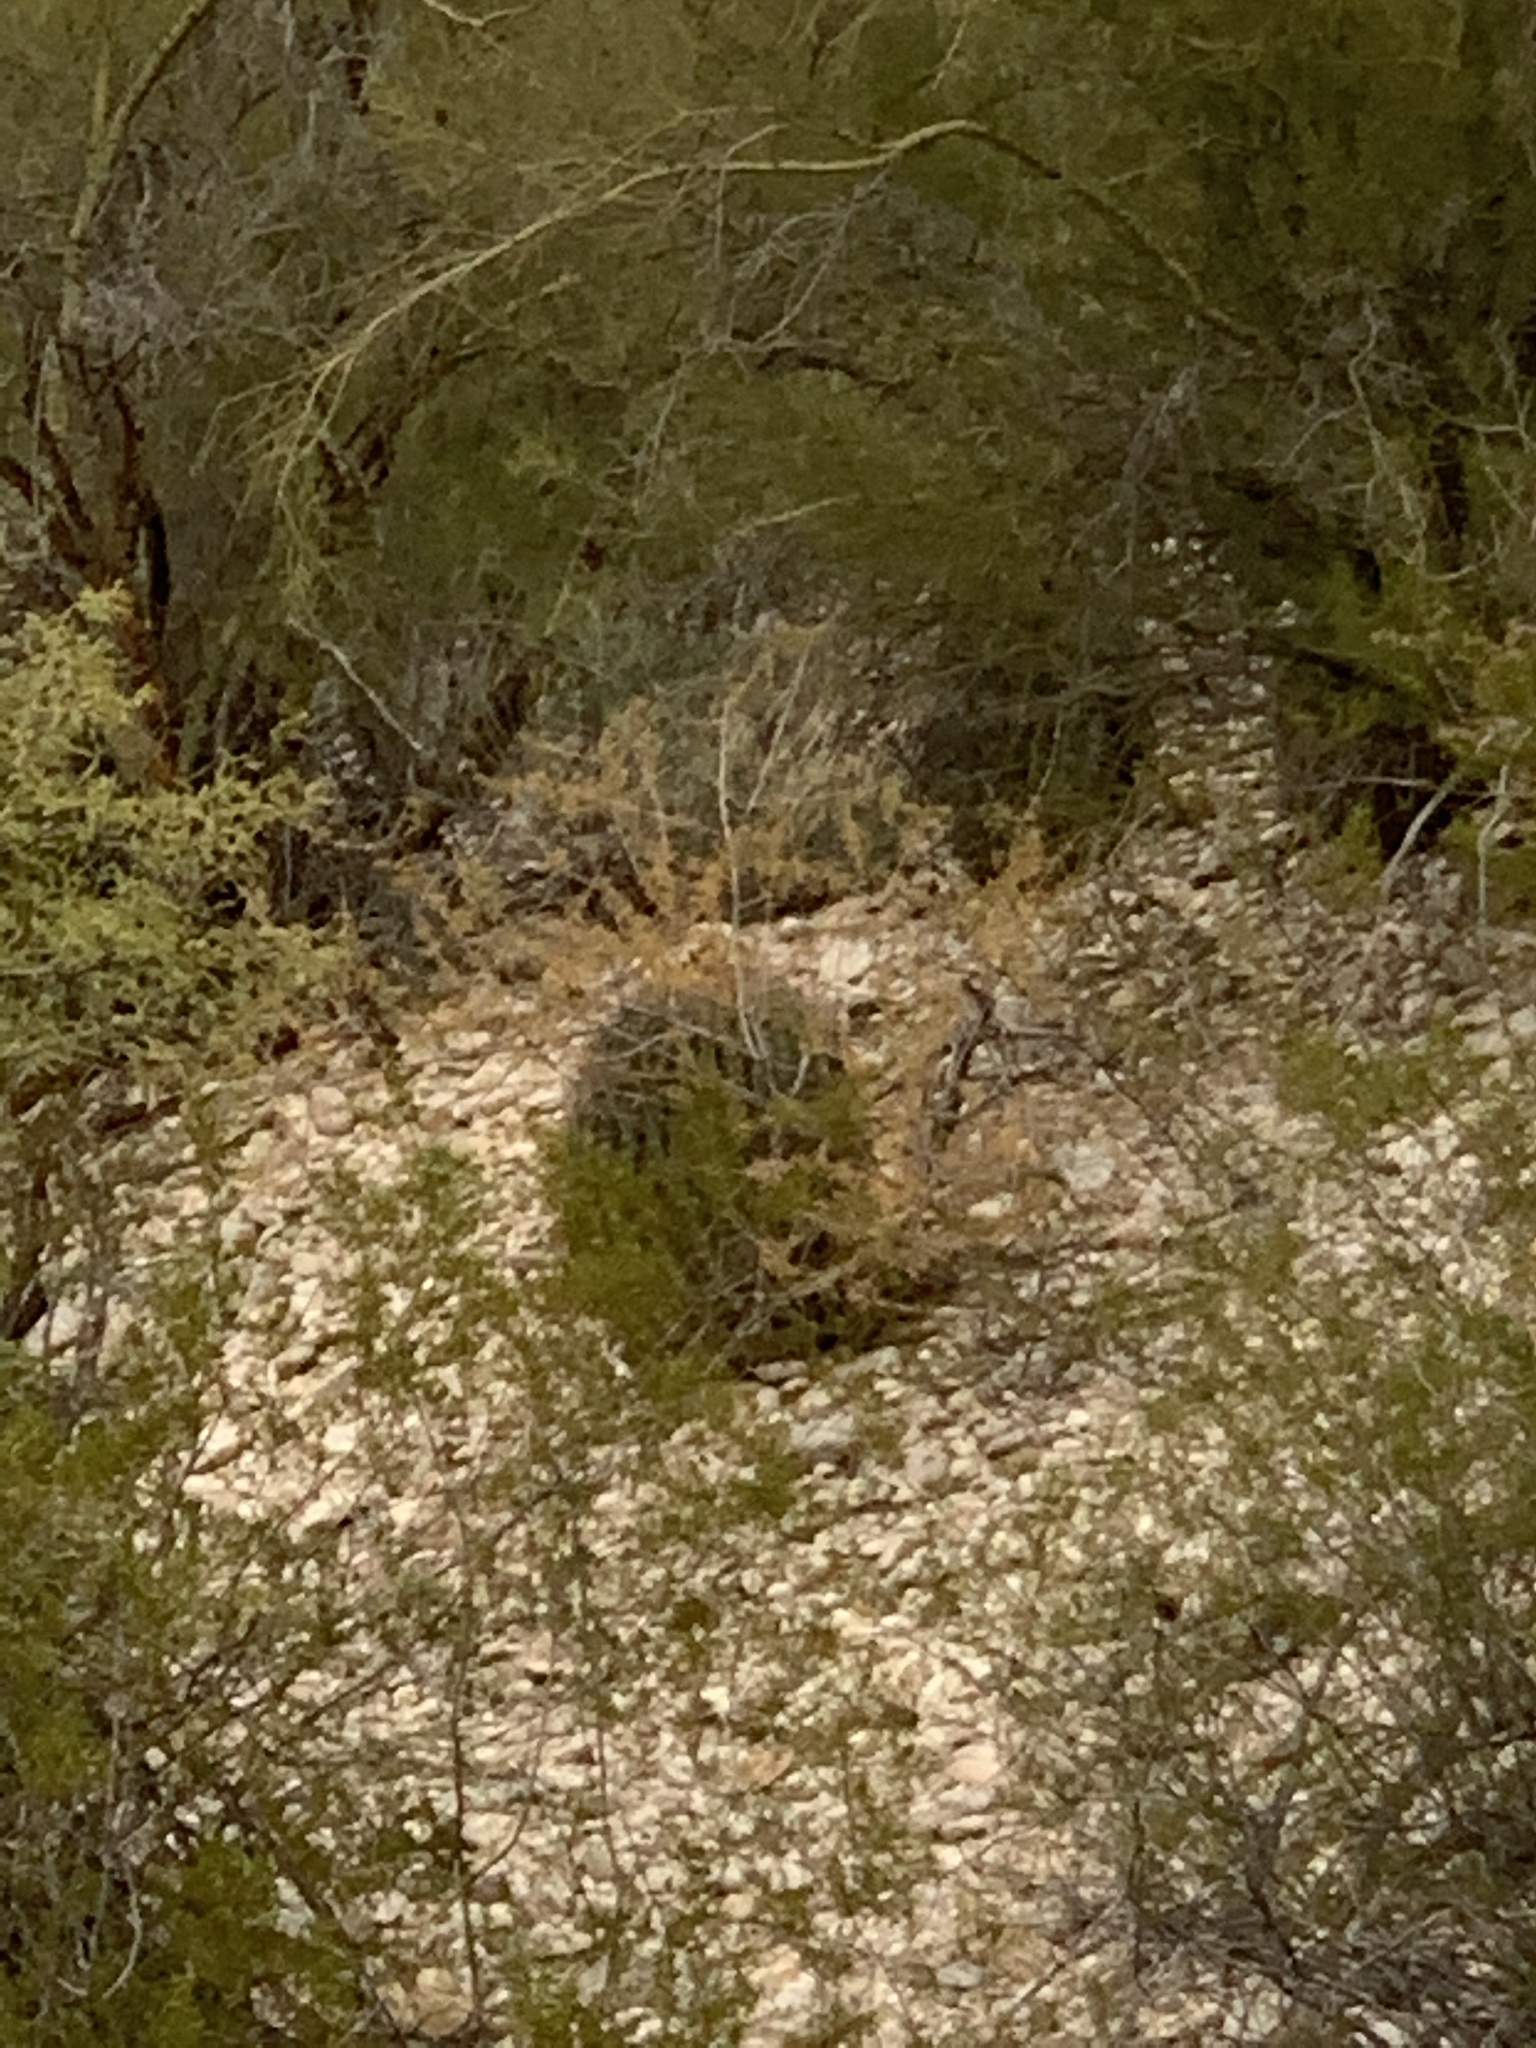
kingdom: Plantae
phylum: Tracheophyta
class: Magnoliopsida
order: Caryophyllales
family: Cactaceae
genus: Ferocactus
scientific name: Ferocactus wislizeni
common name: Candy barrel cactus
